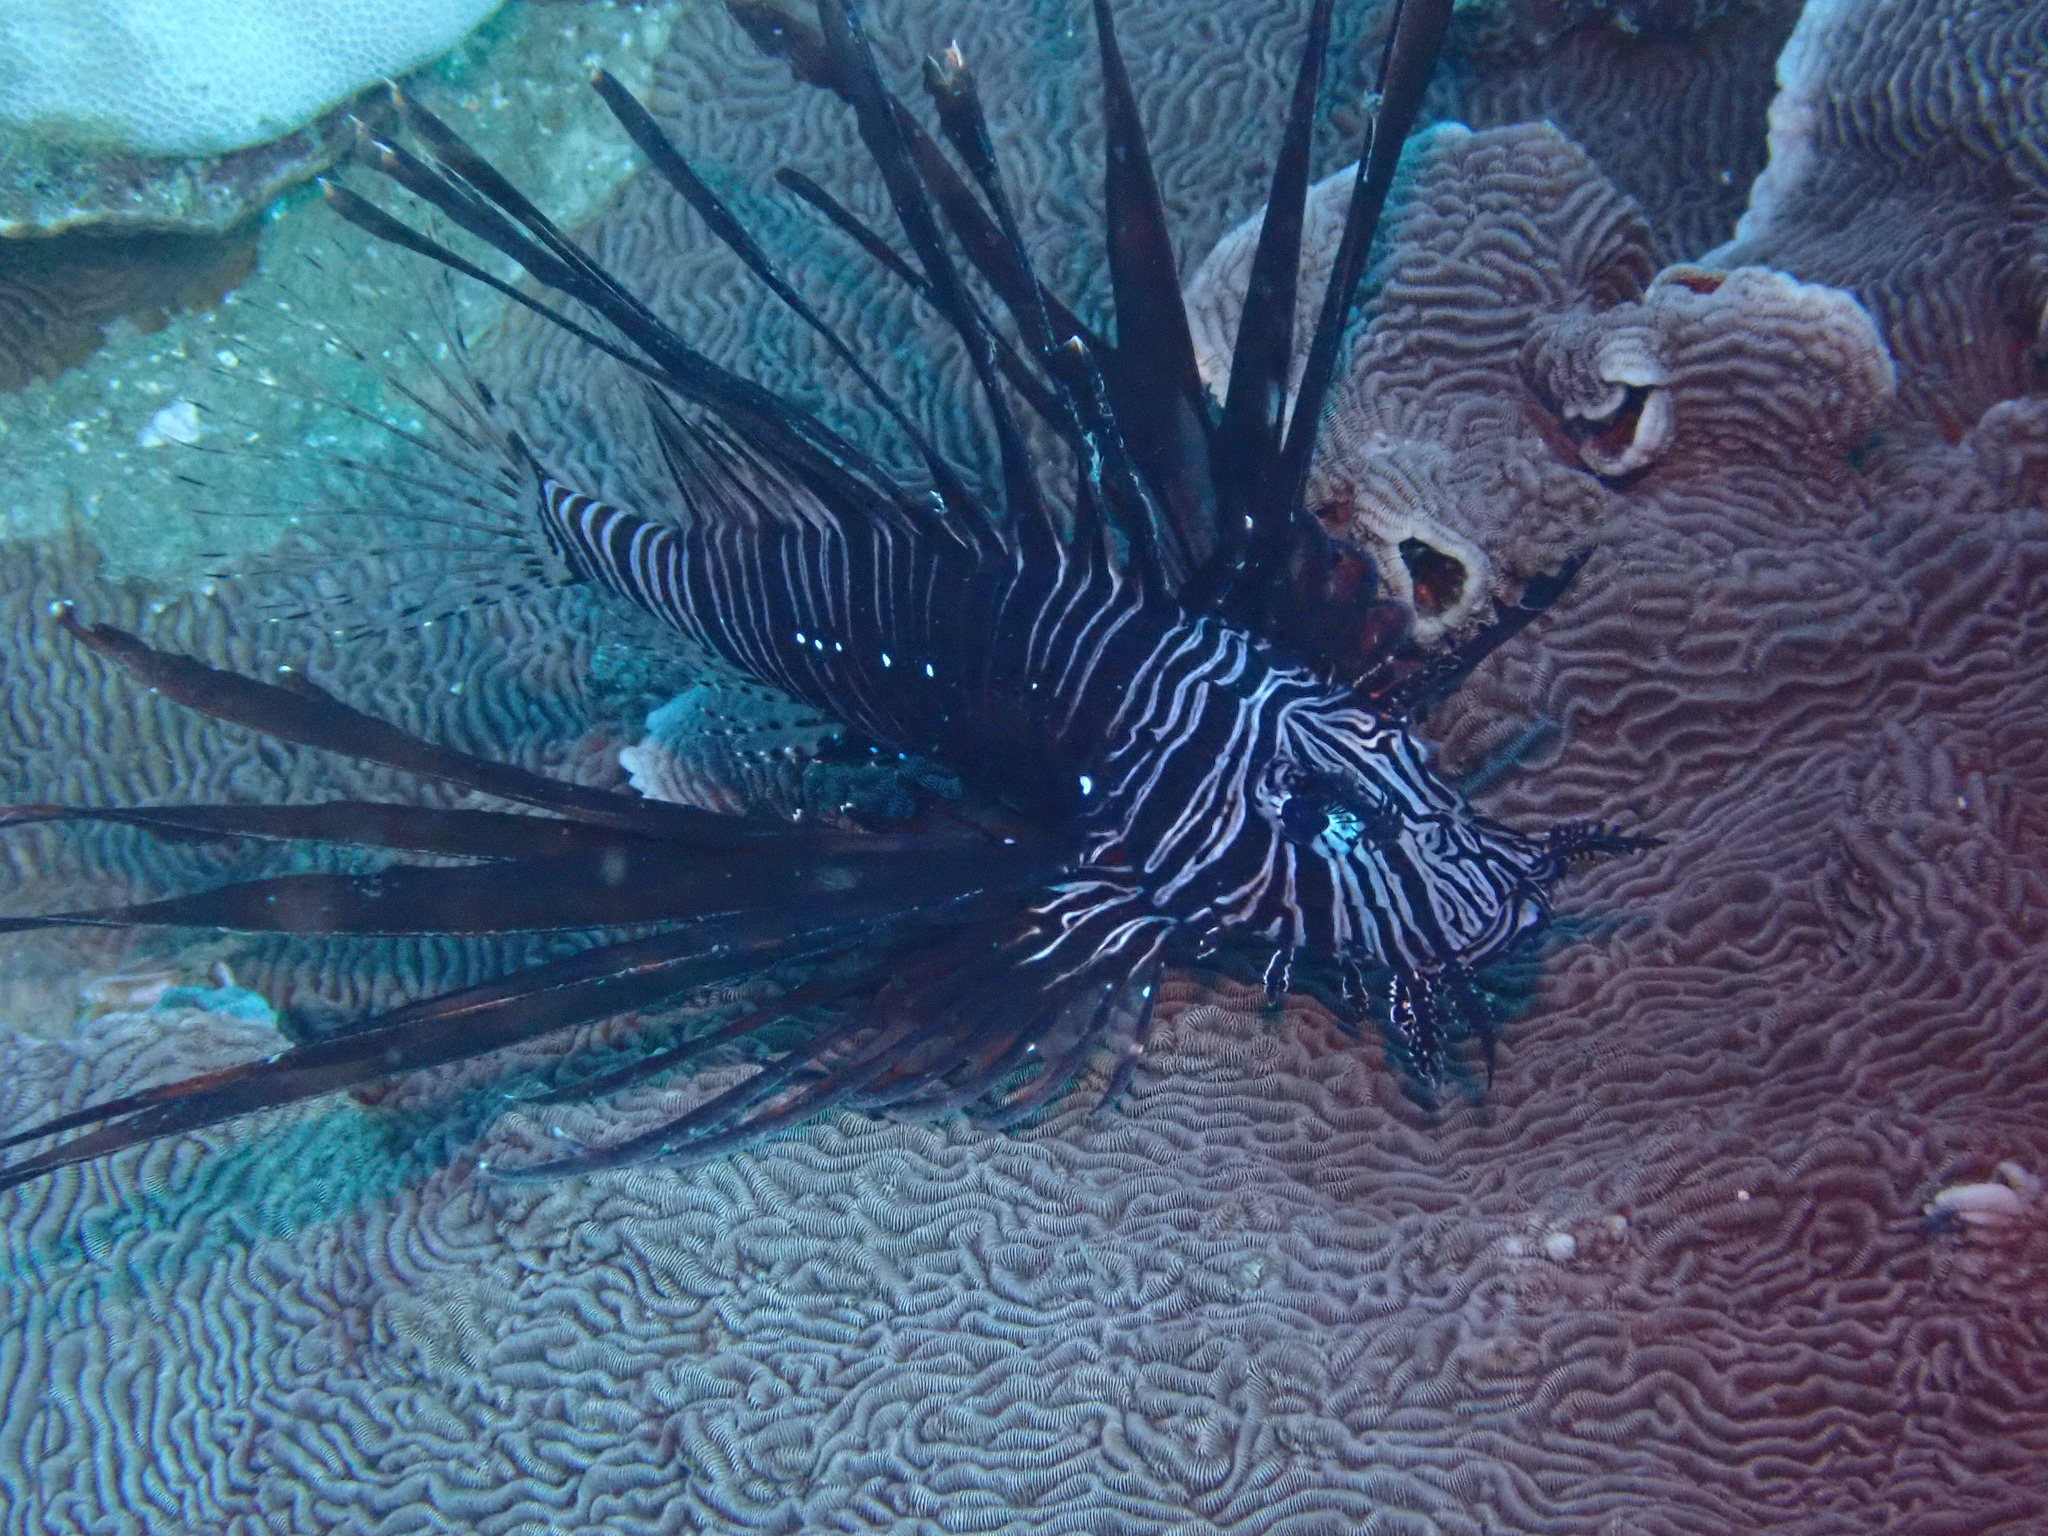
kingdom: Animalia
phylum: Chordata
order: Scorpaeniformes
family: Scorpaenidae
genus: Pterois
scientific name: Pterois volitans
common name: Lionfish
